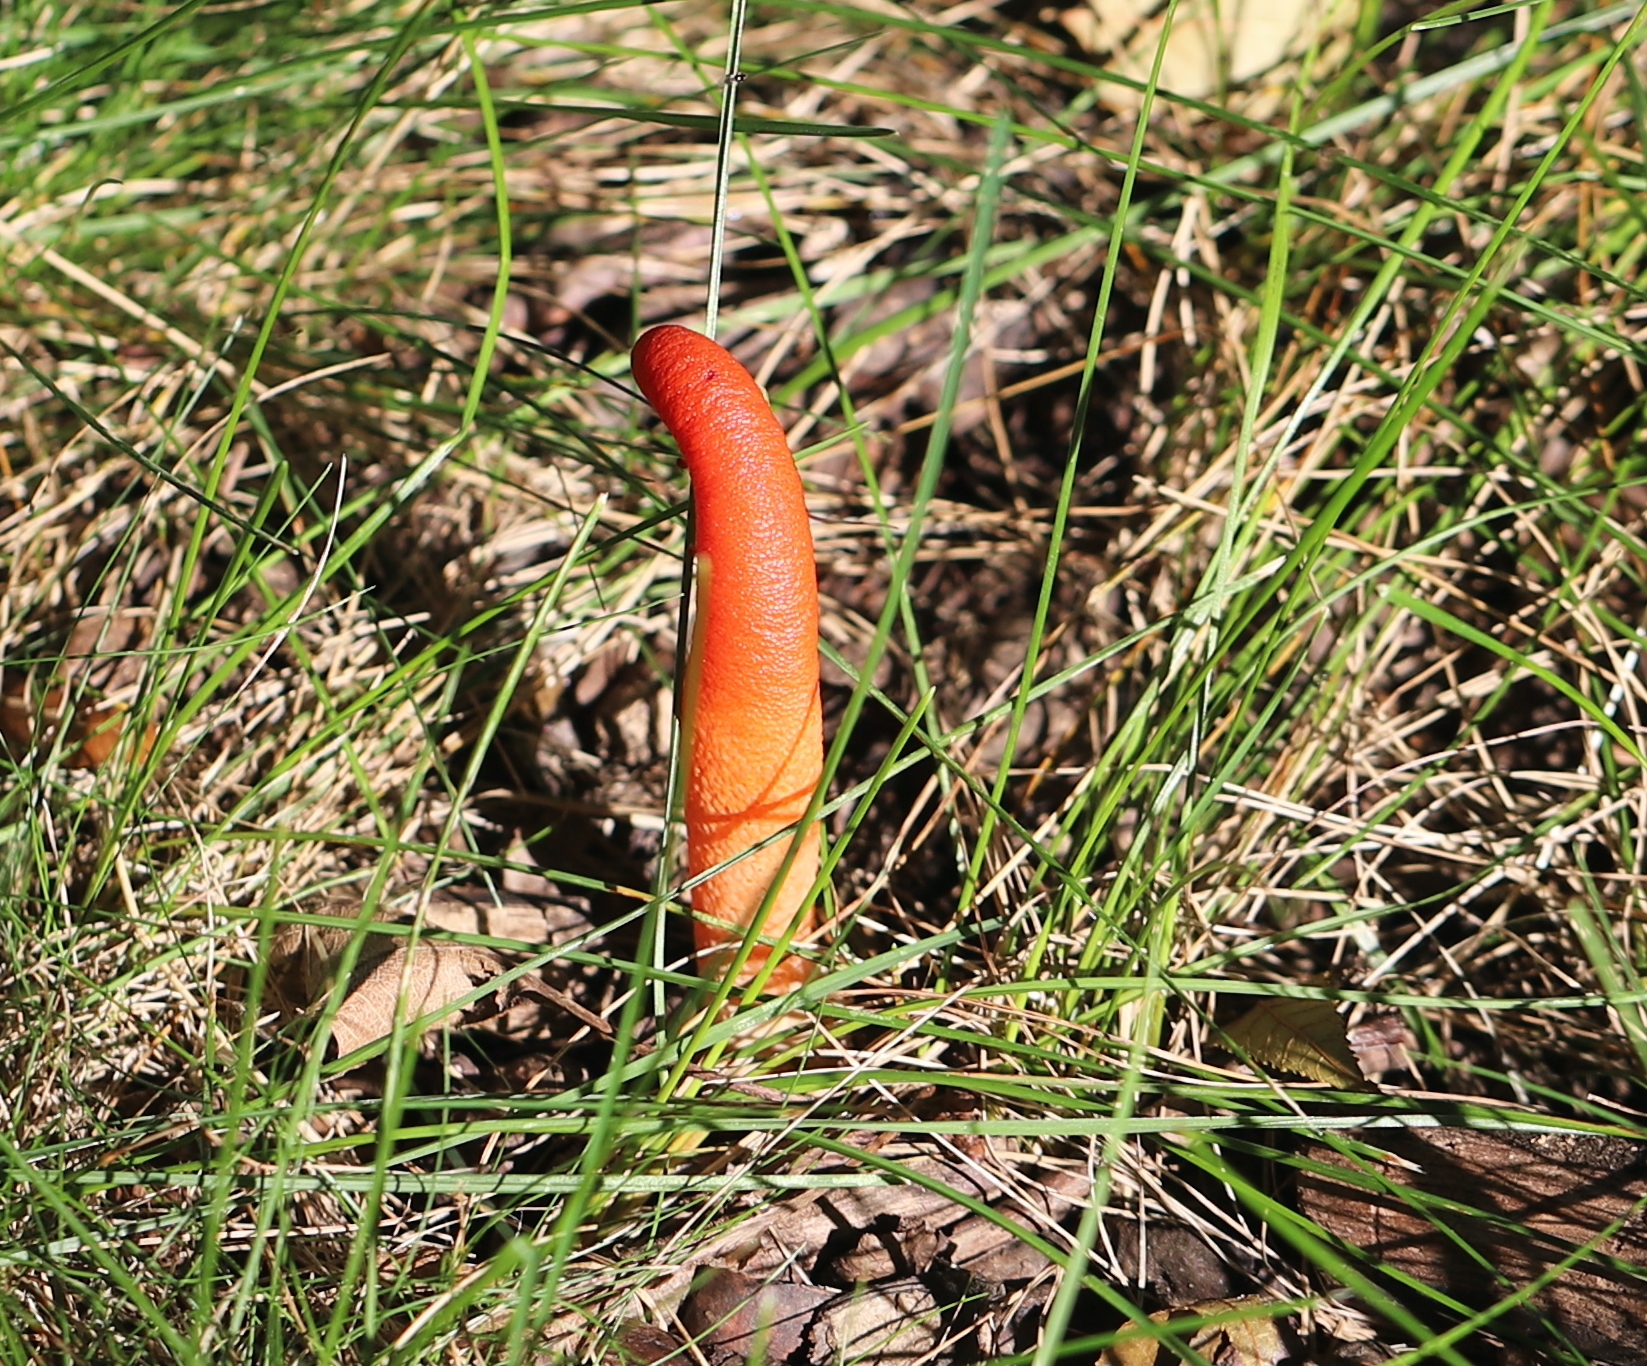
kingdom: Fungi
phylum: Basidiomycota
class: Agaricomycetes
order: Phallales
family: Phallaceae
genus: Mutinus
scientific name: Mutinus elegans
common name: Devil's dipstick
